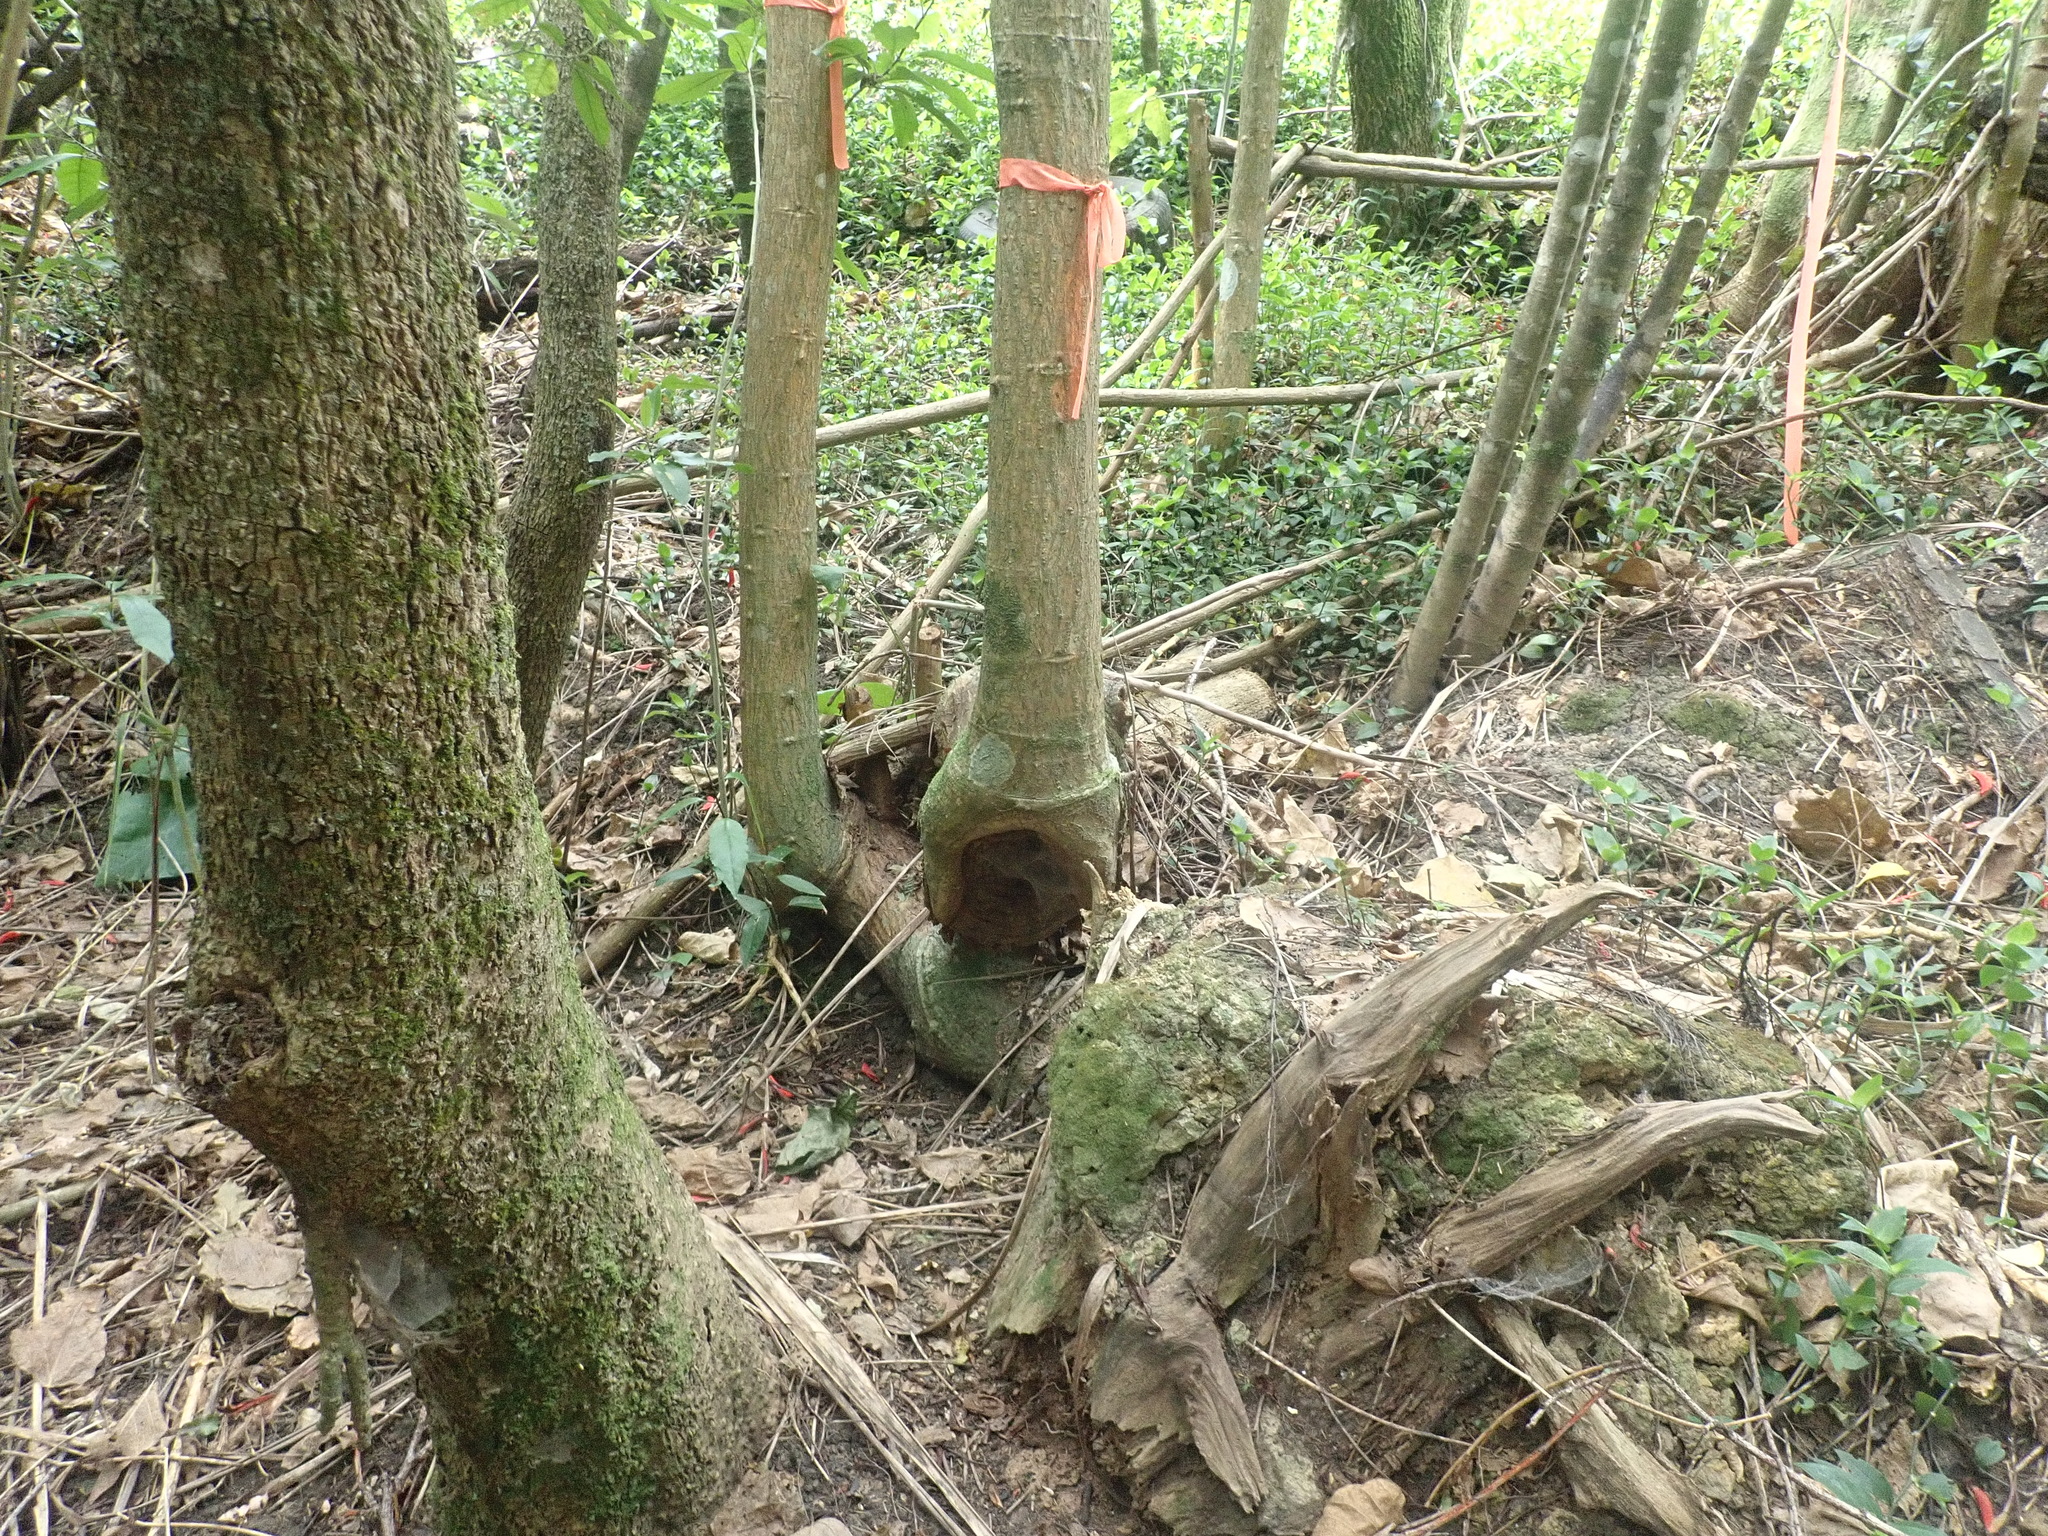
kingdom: Plantae
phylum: Tracheophyta
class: Magnoliopsida
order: Ericales
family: Primulaceae
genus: Myrsine
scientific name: Myrsine australis
